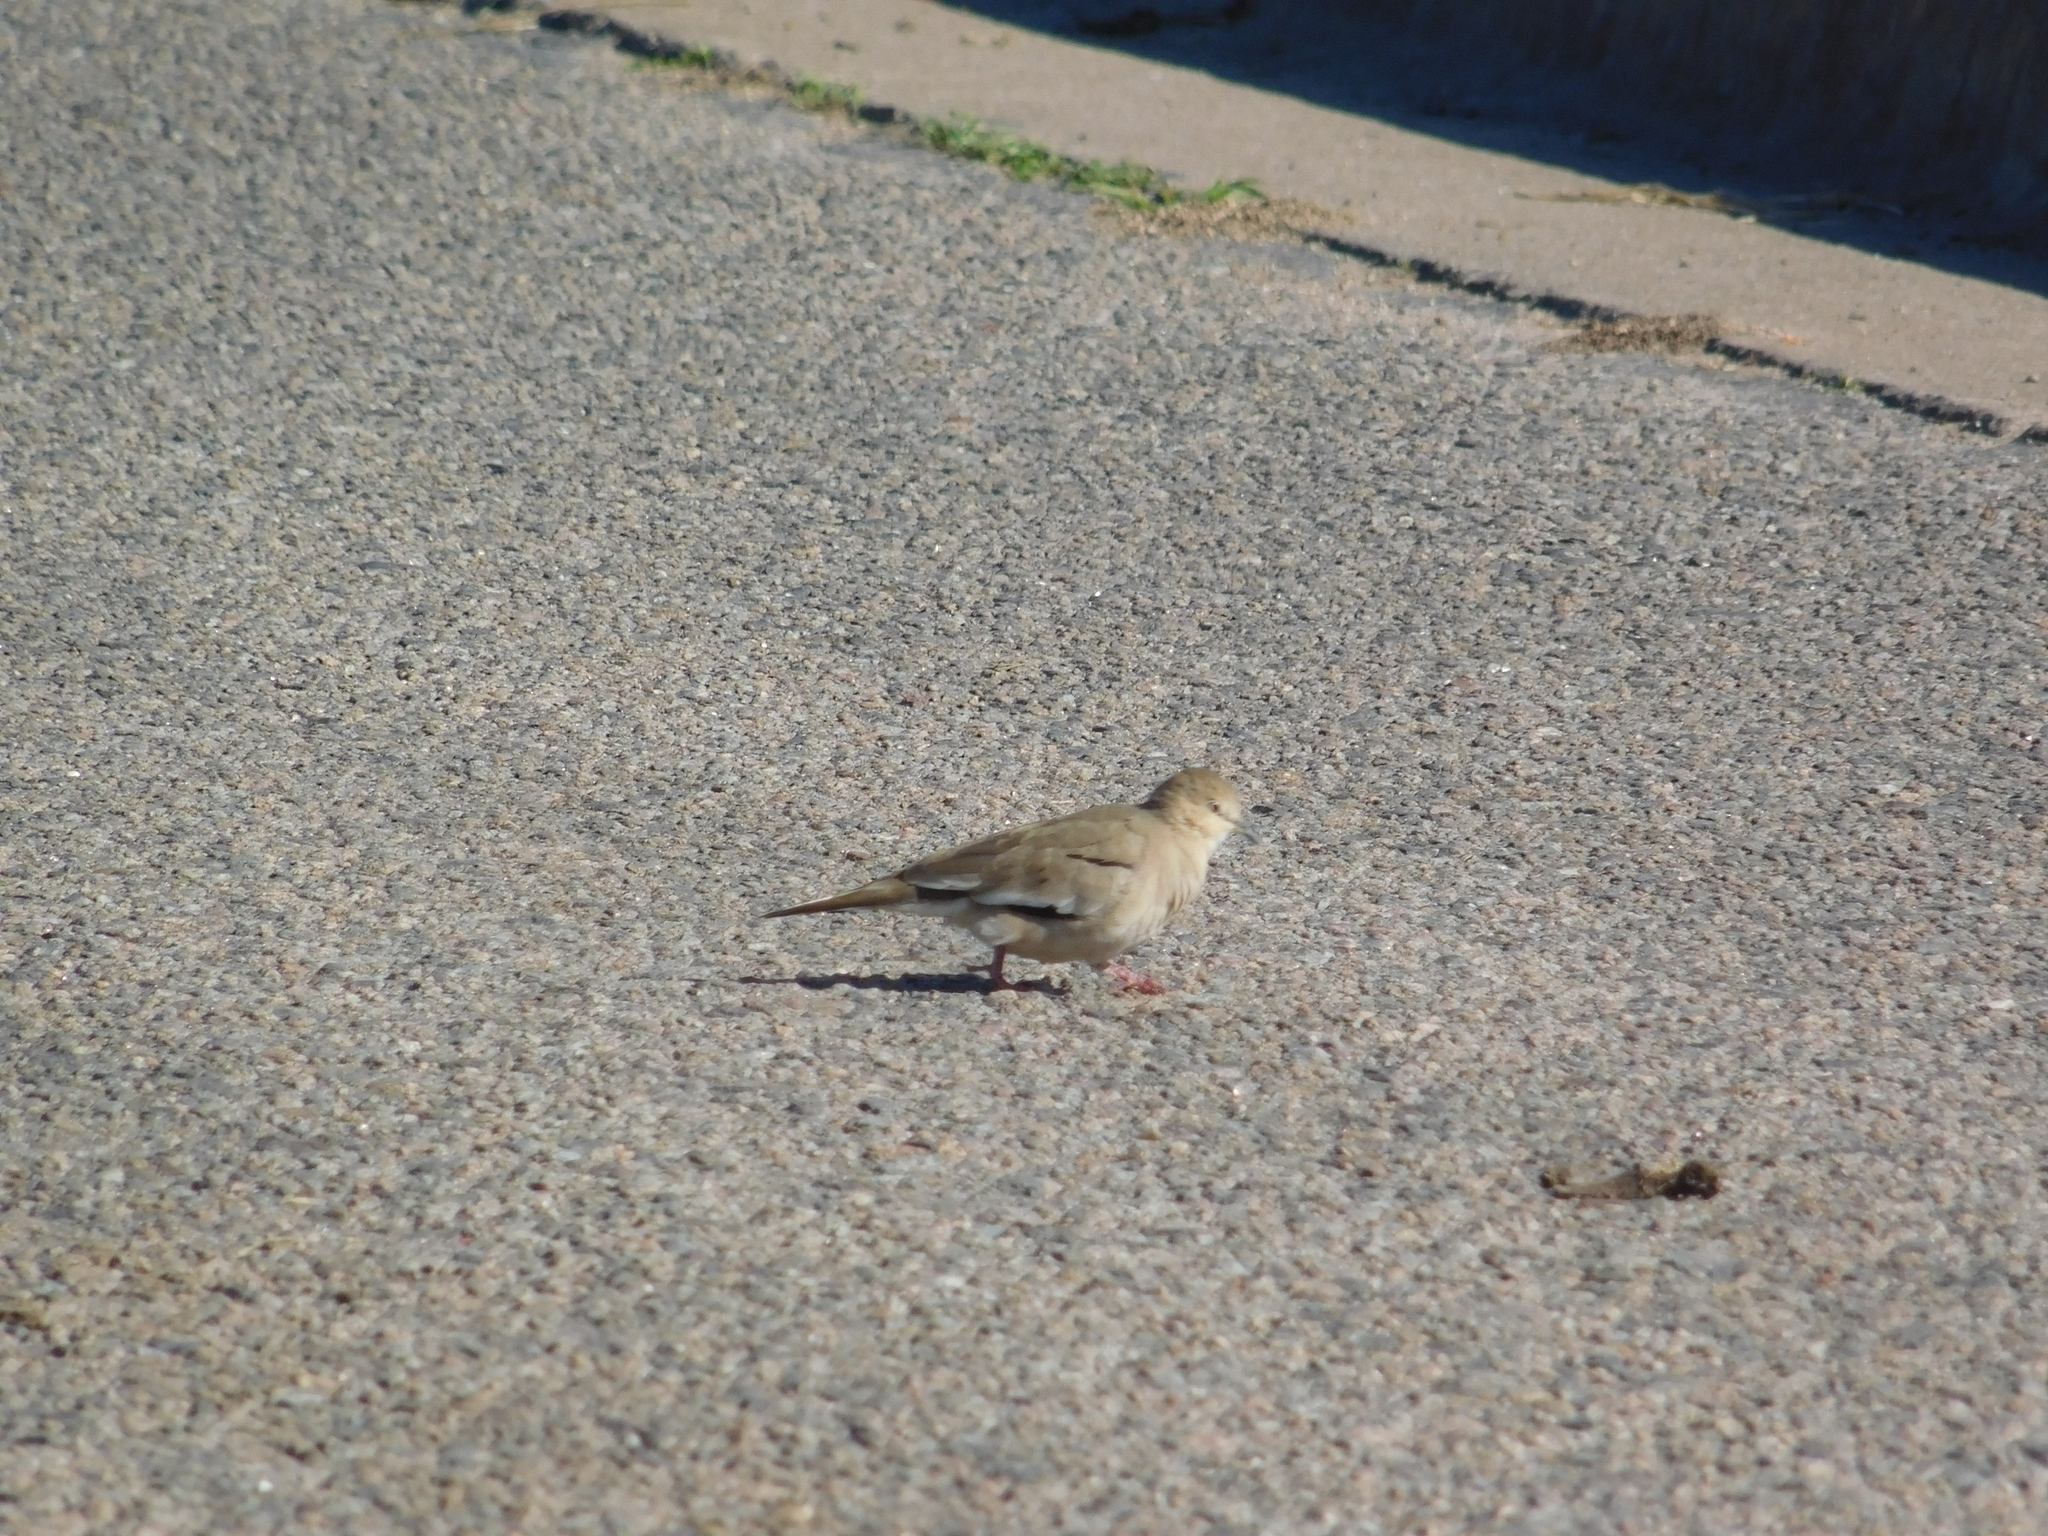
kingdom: Animalia
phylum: Chordata
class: Aves
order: Columbiformes
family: Columbidae
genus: Columbina
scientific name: Columbina picui
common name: Picui ground dove
